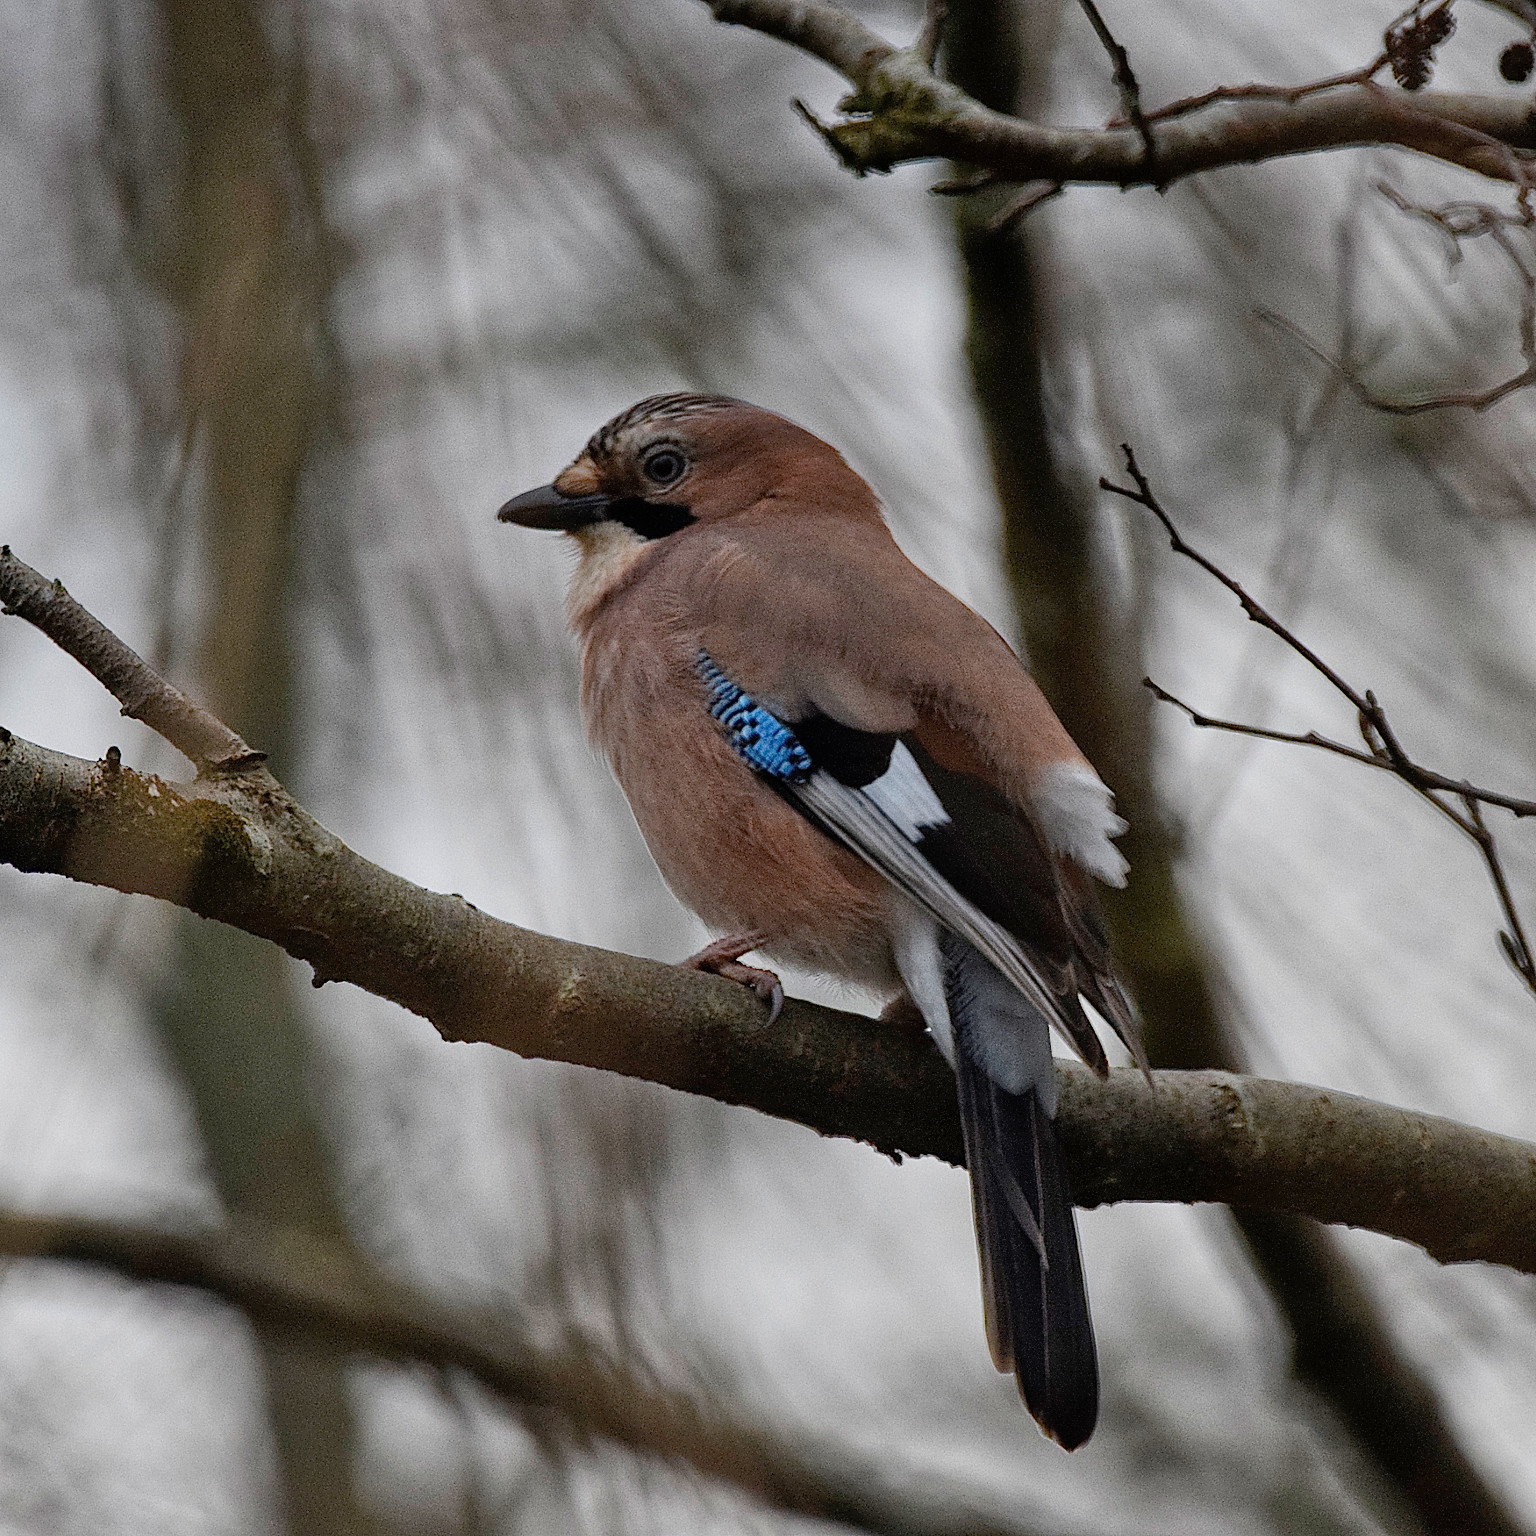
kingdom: Animalia
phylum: Chordata
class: Aves
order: Passeriformes
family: Corvidae
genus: Garrulus
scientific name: Garrulus glandarius
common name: Eurasian jay
